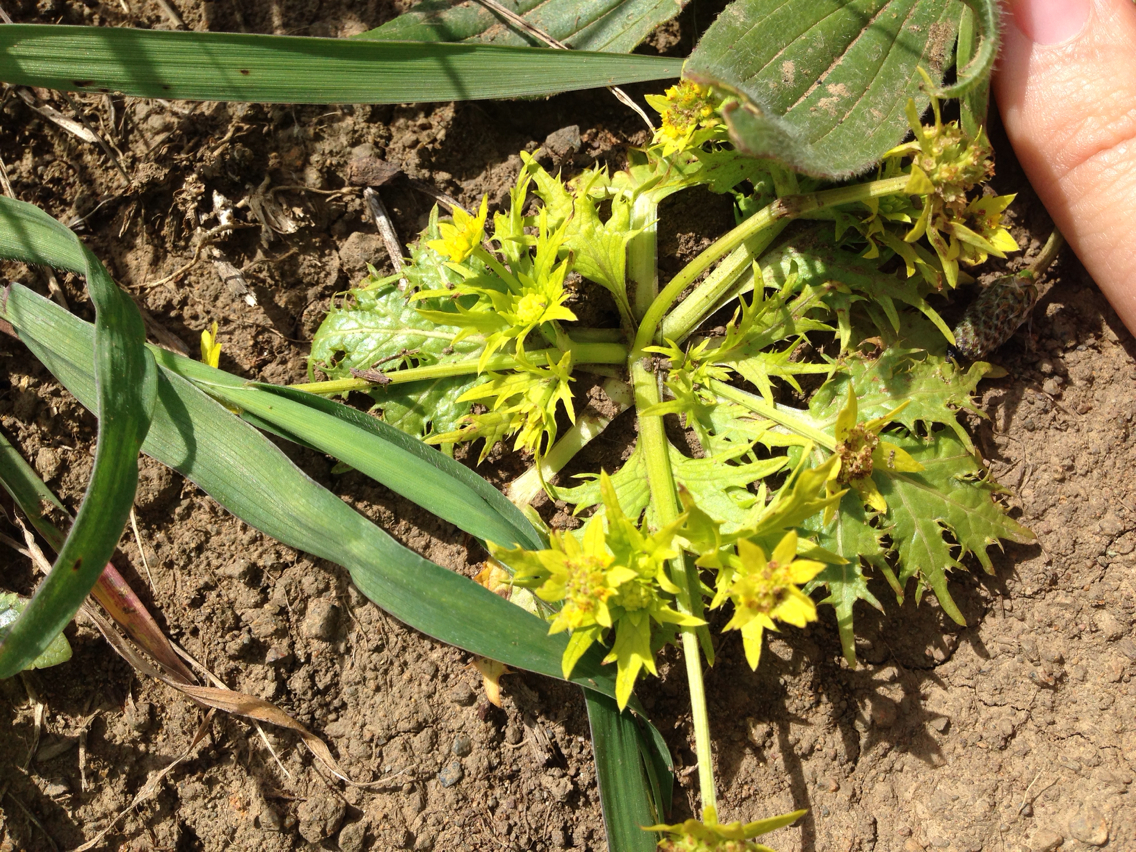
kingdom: Plantae
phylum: Tracheophyta
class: Magnoliopsida
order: Apiales
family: Apiaceae
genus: Sanicula
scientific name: Sanicula arctopoides
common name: Footsteps-of-spring
